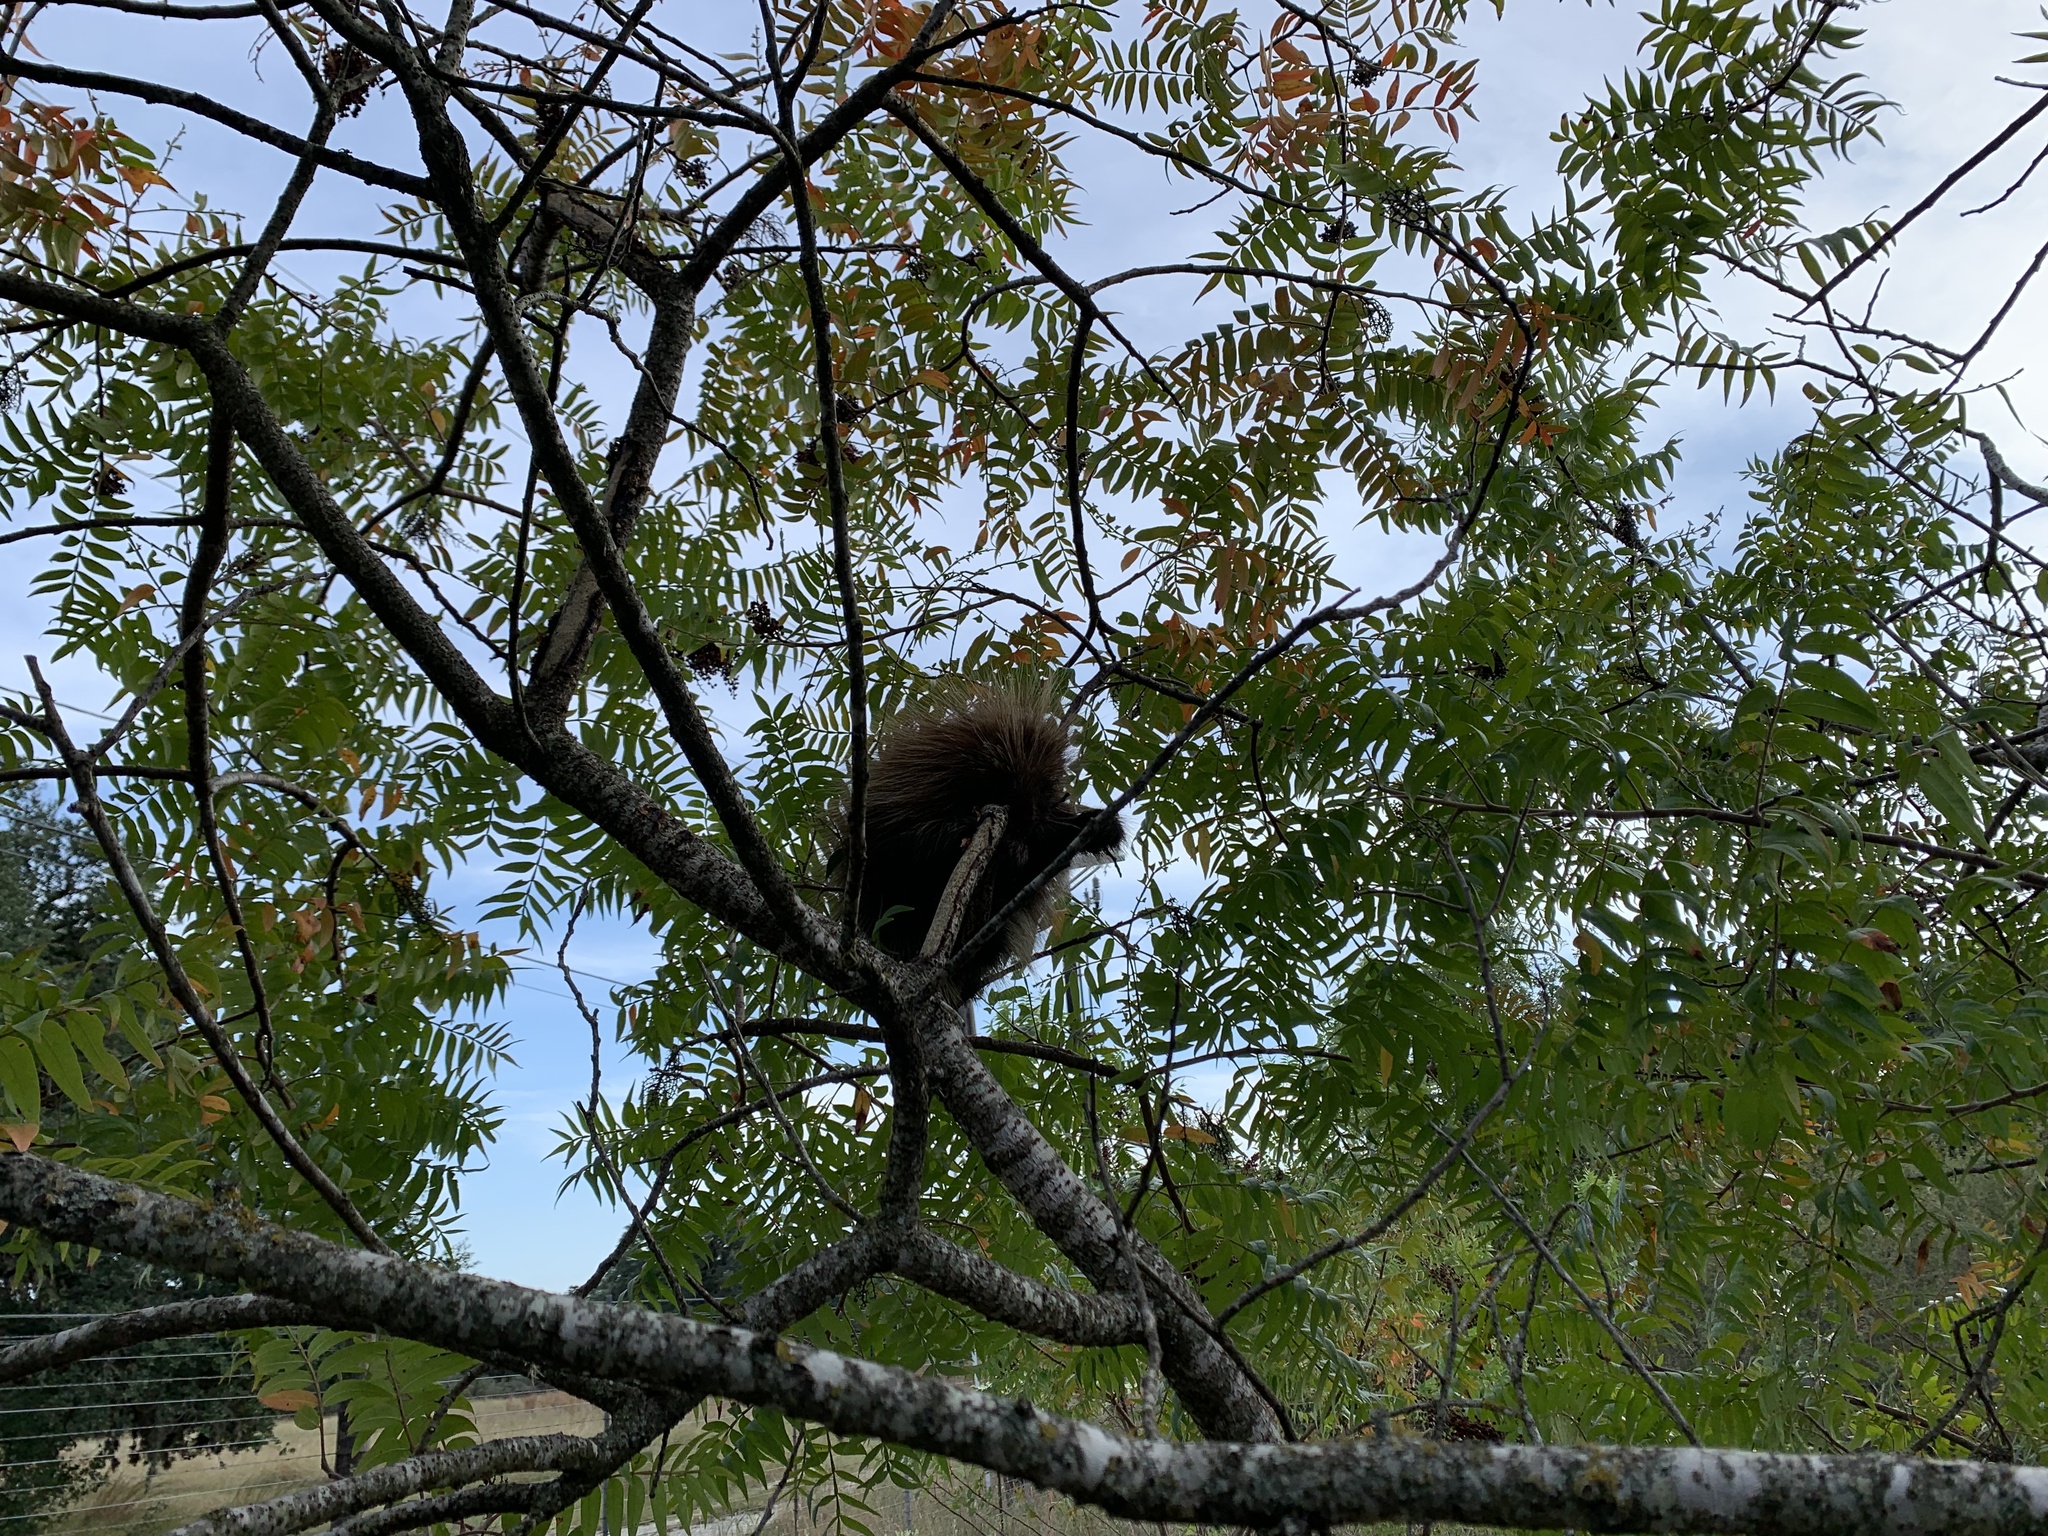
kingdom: Animalia
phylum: Chordata
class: Mammalia
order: Rodentia
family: Erethizontidae
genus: Erethizon
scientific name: Erethizon dorsatus
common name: North american porcupine
